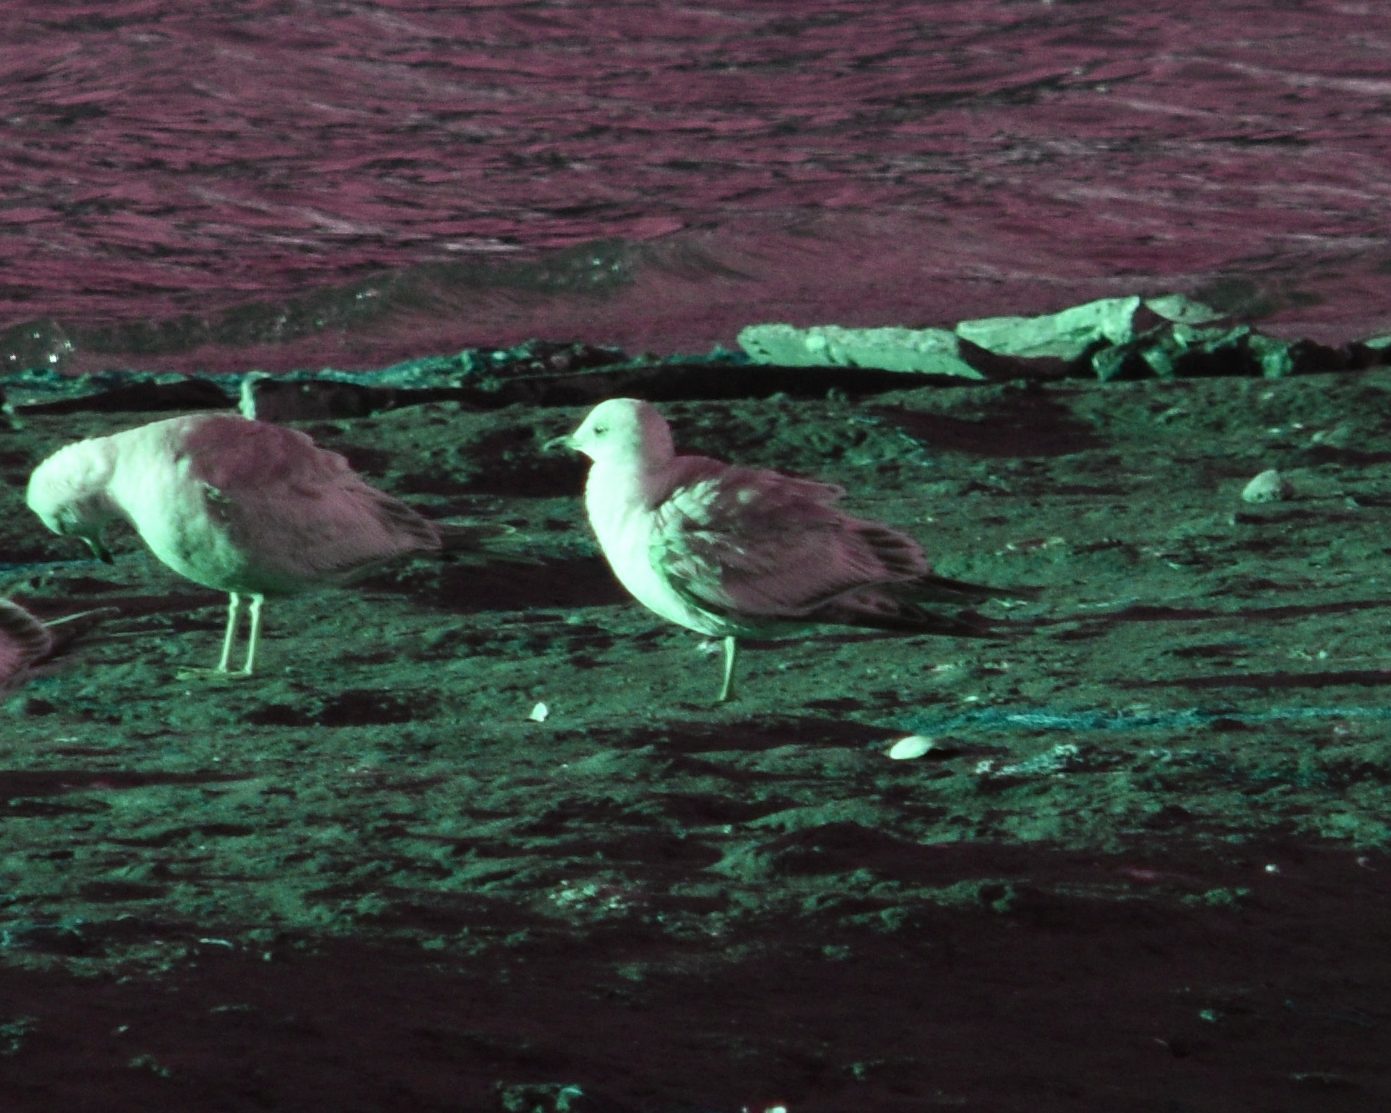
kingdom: Animalia
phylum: Chordata
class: Aves
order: Charadriiformes
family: Laridae
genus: Larus
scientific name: Larus brachyrhynchus
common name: Short-billed gull
